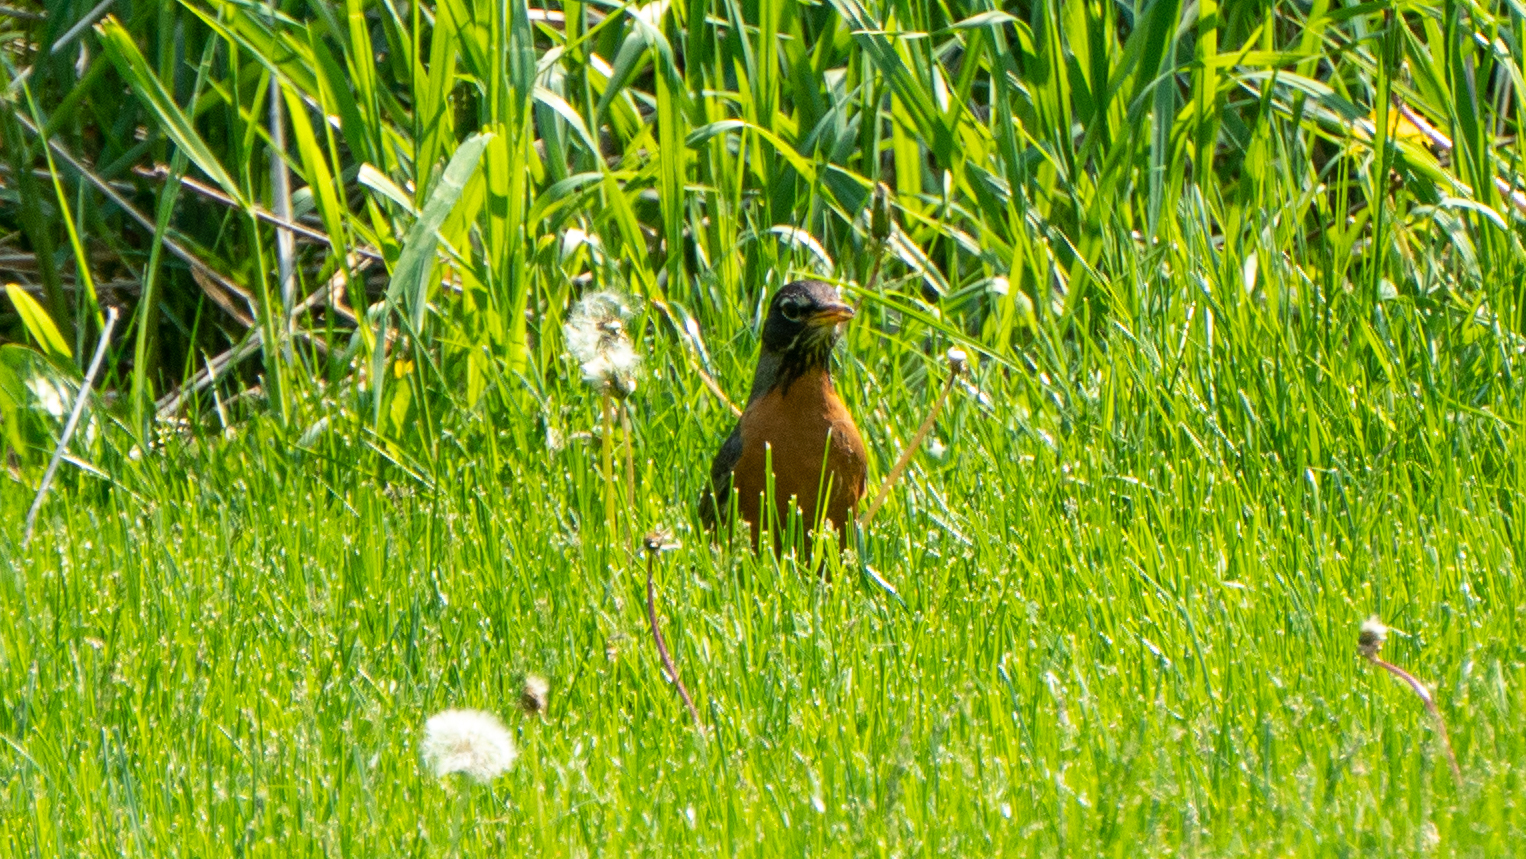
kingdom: Animalia
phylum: Chordata
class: Aves
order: Passeriformes
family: Turdidae
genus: Turdus
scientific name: Turdus migratorius
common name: American robin
